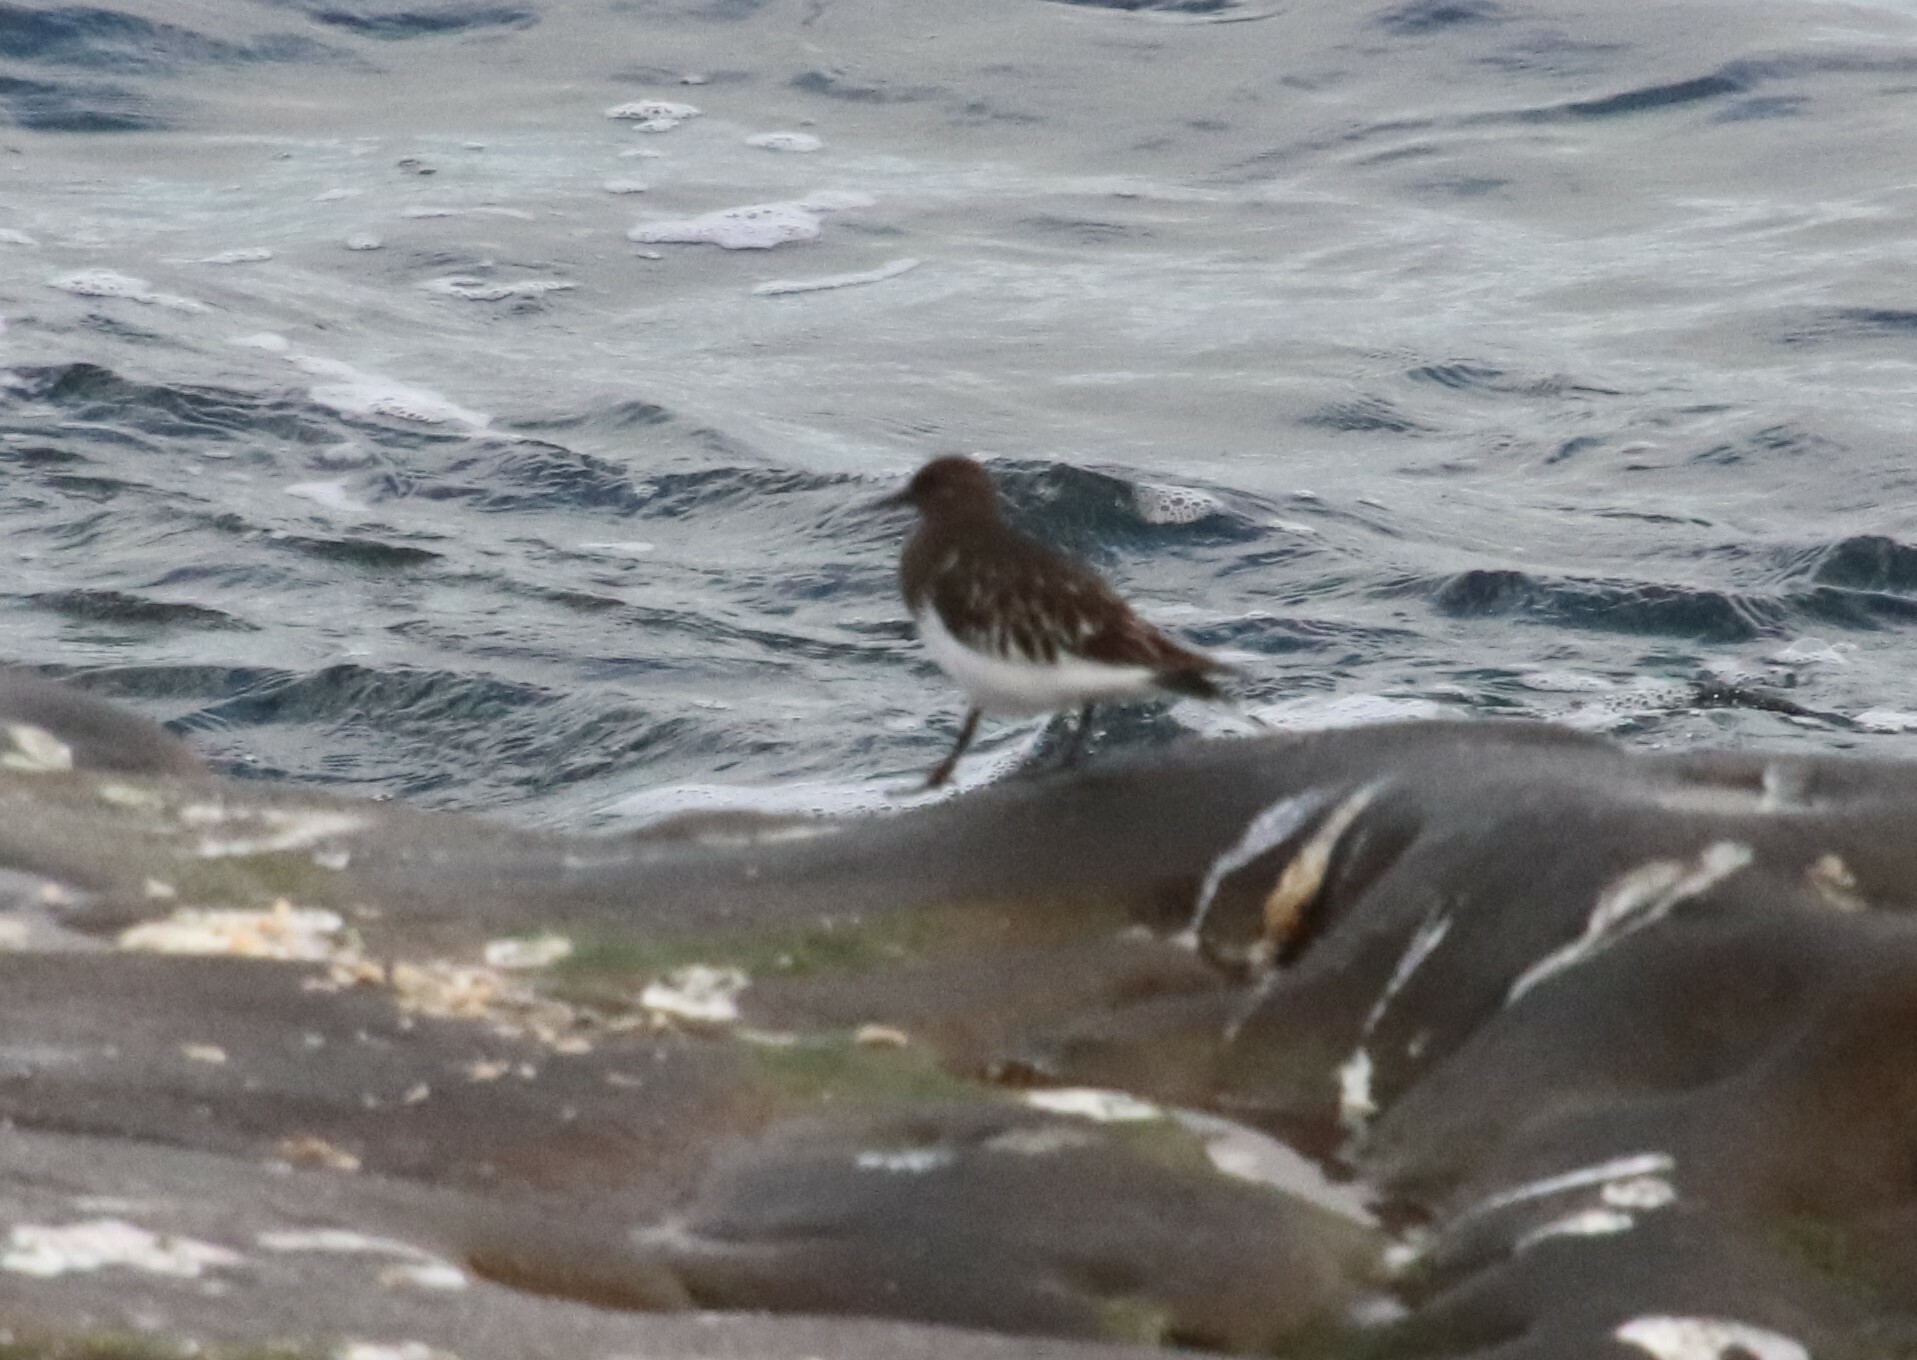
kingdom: Animalia
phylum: Chordata
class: Aves
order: Charadriiformes
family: Scolopacidae
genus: Arenaria
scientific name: Arenaria melanocephala
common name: Black turnstone
